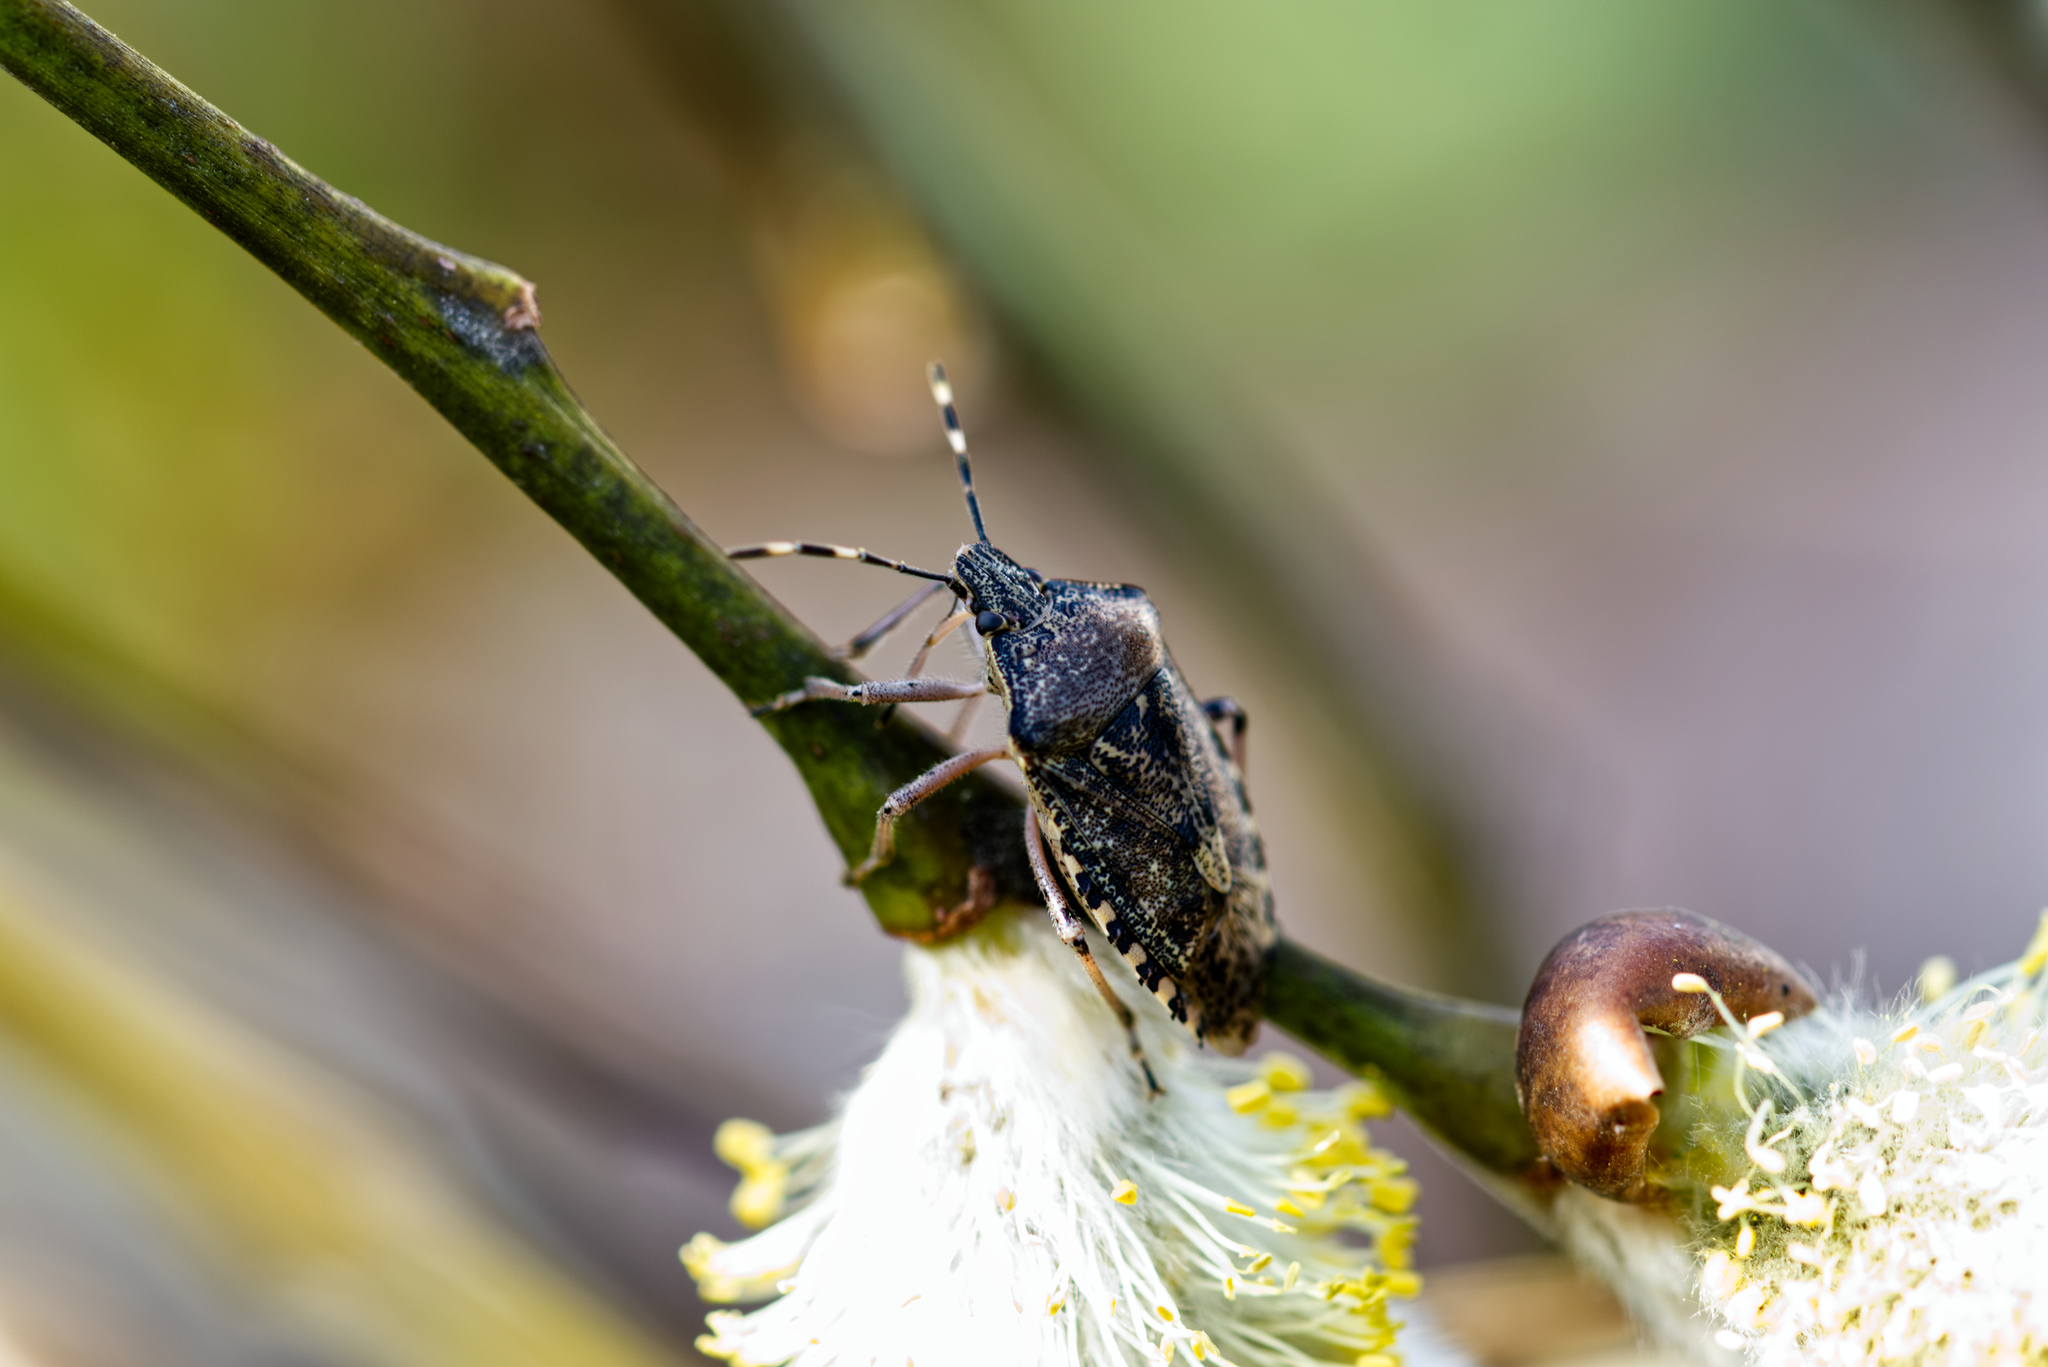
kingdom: Animalia
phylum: Arthropoda
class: Insecta
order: Hemiptera
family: Pentatomidae
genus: Rhaphigaster
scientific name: Rhaphigaster nebulosa
